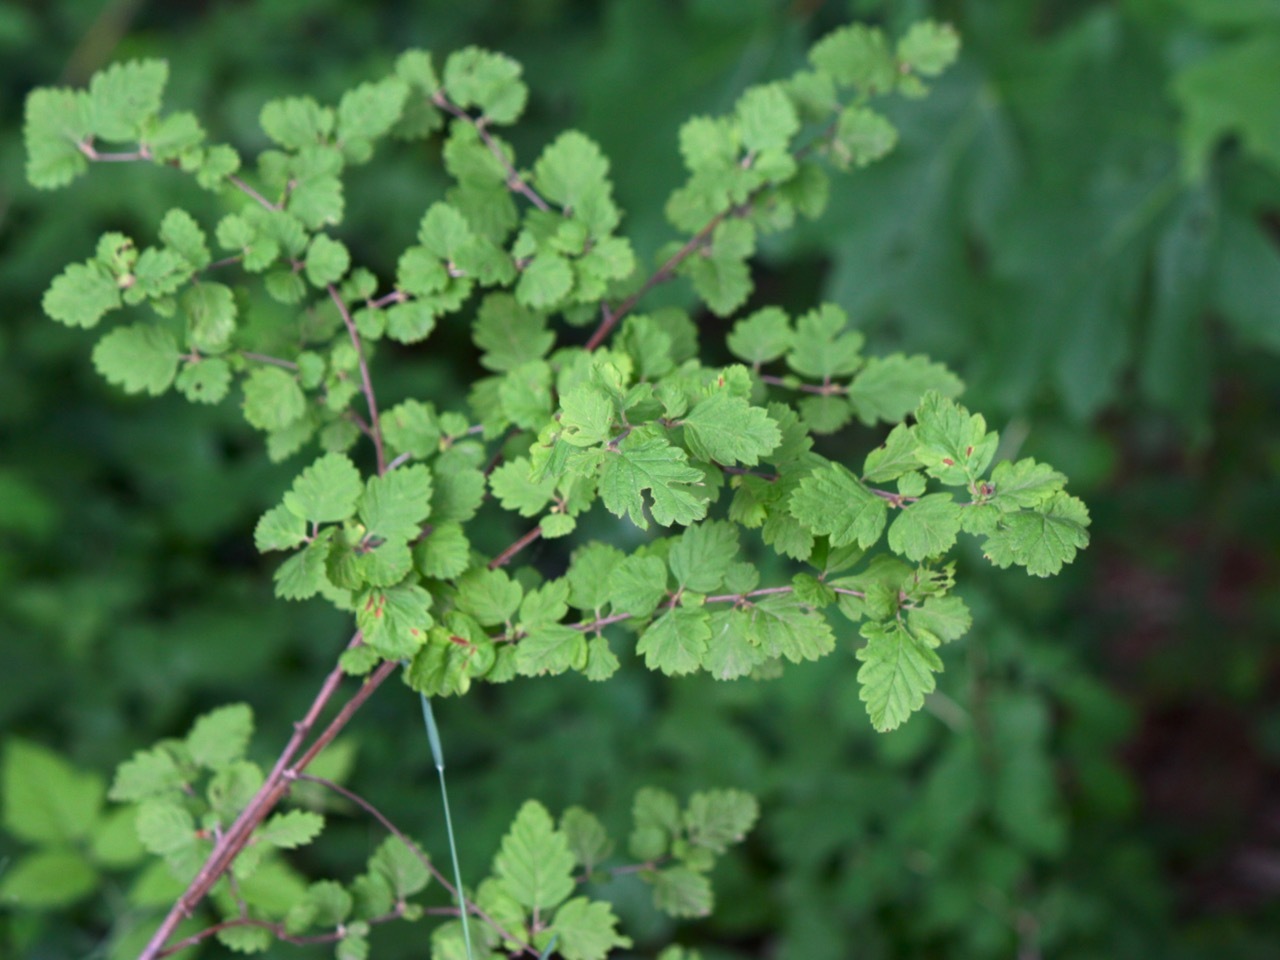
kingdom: Plantae
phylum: Tracheophyta
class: Magnoliopsida
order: Rosales
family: Rosaceae
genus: Holodiscus
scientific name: Holodiscus discolor
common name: Oceanspray
